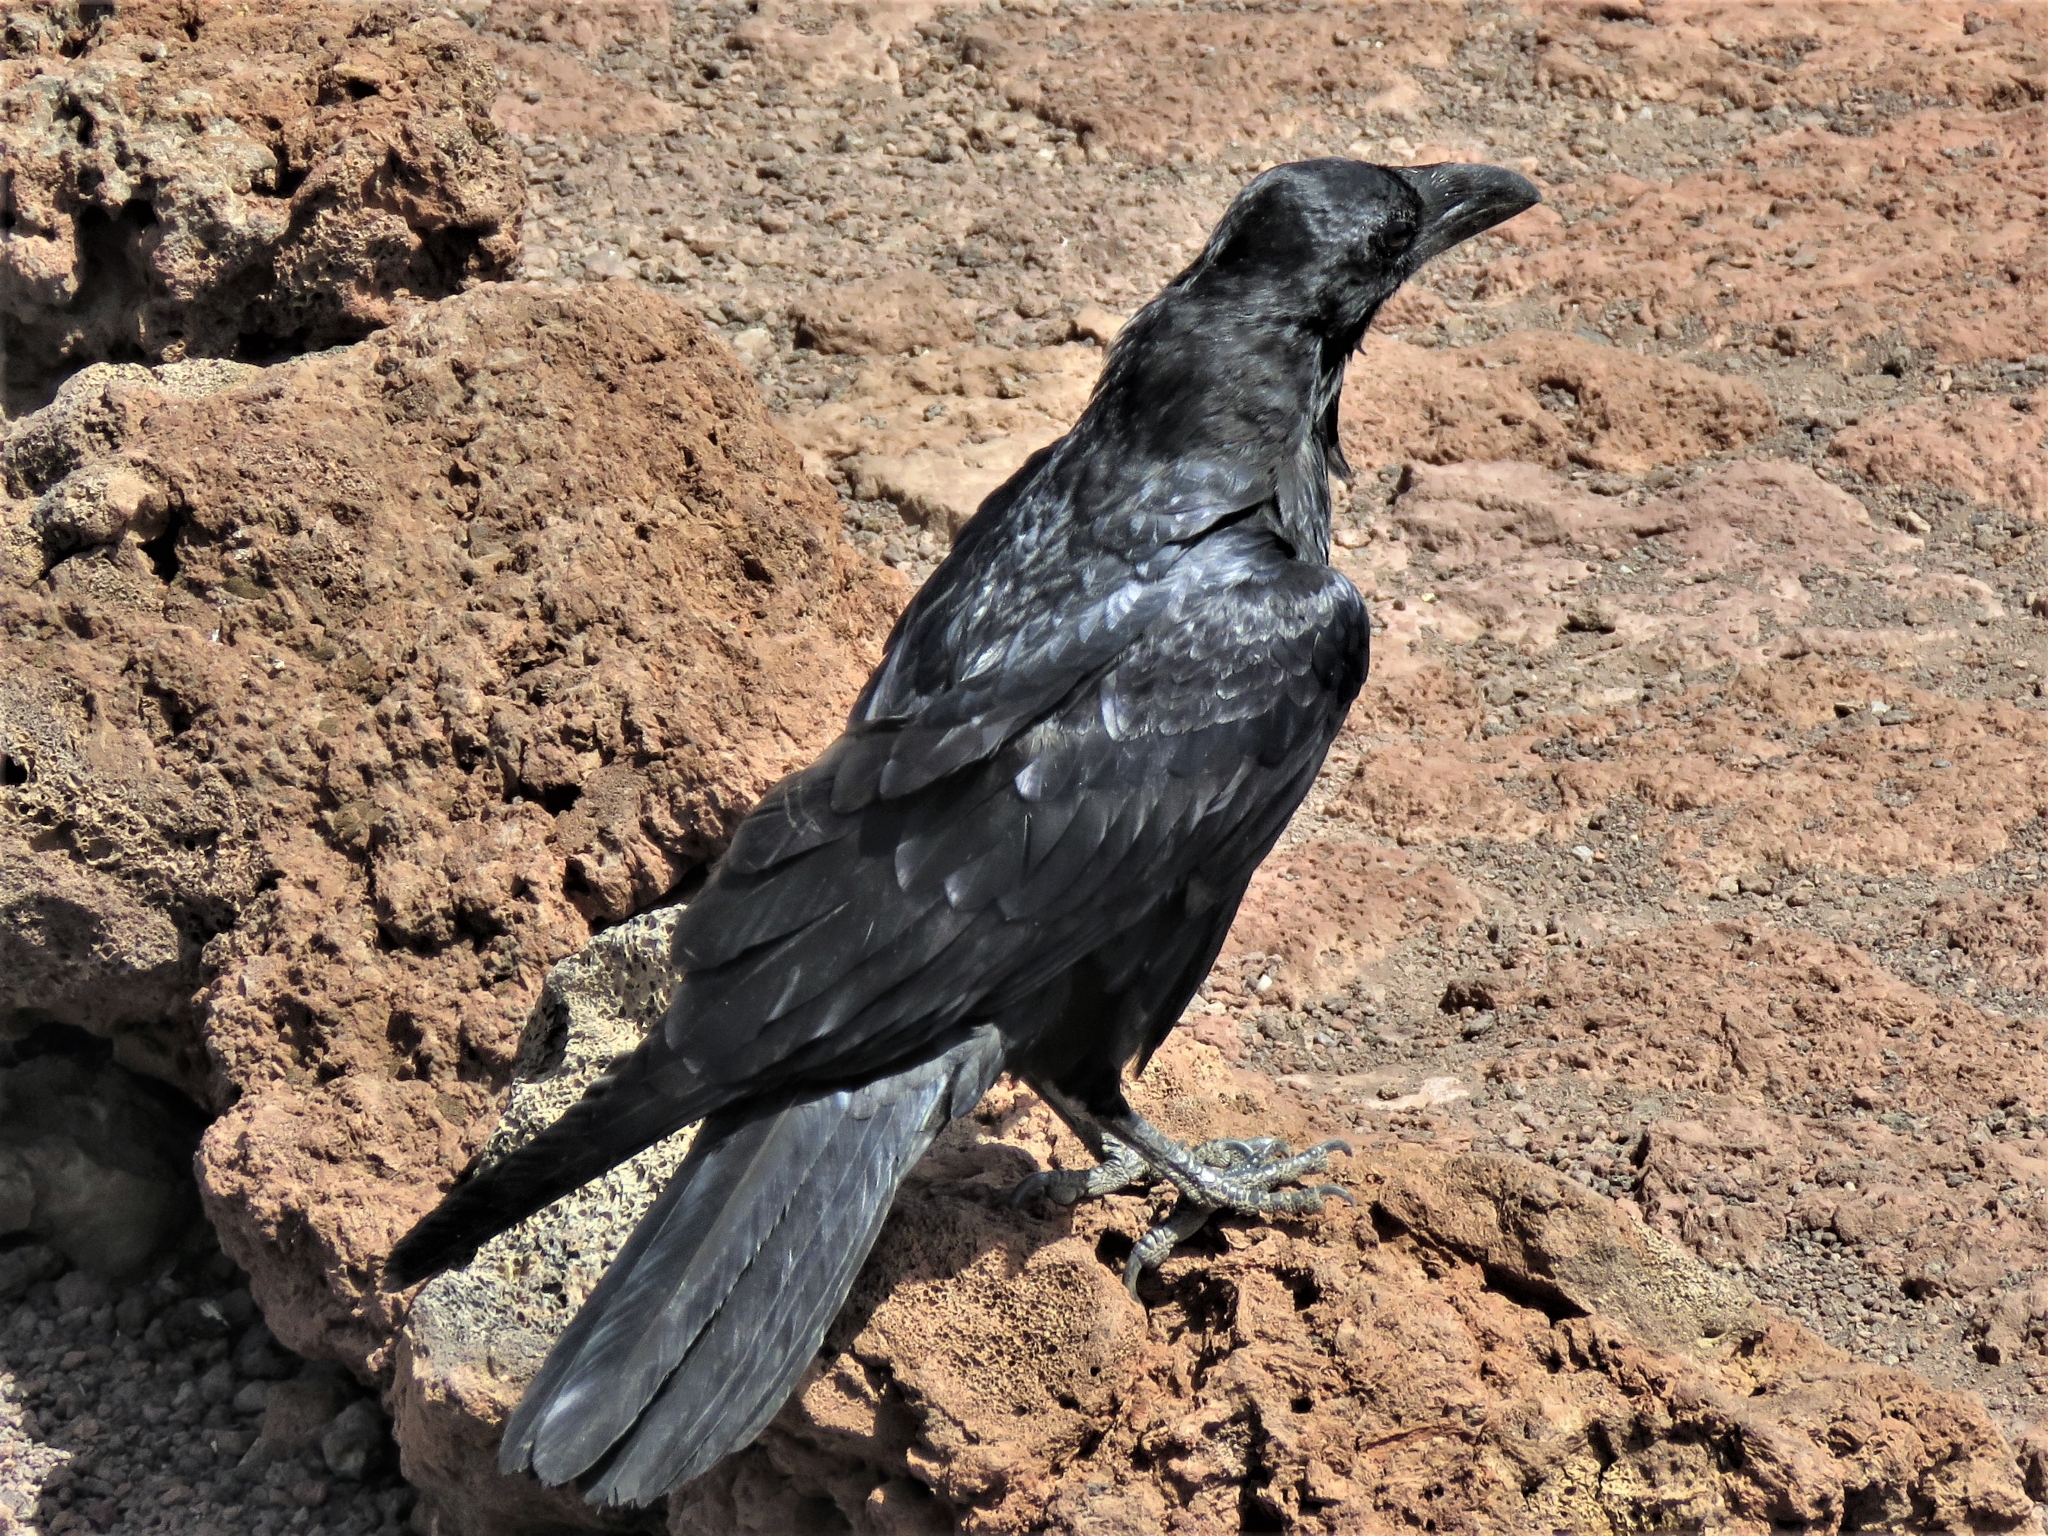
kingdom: Animalia
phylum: Chordata
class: Aves
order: Passeriformes
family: Corvidae
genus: Corvus
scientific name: Corvus corax
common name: Common raven
